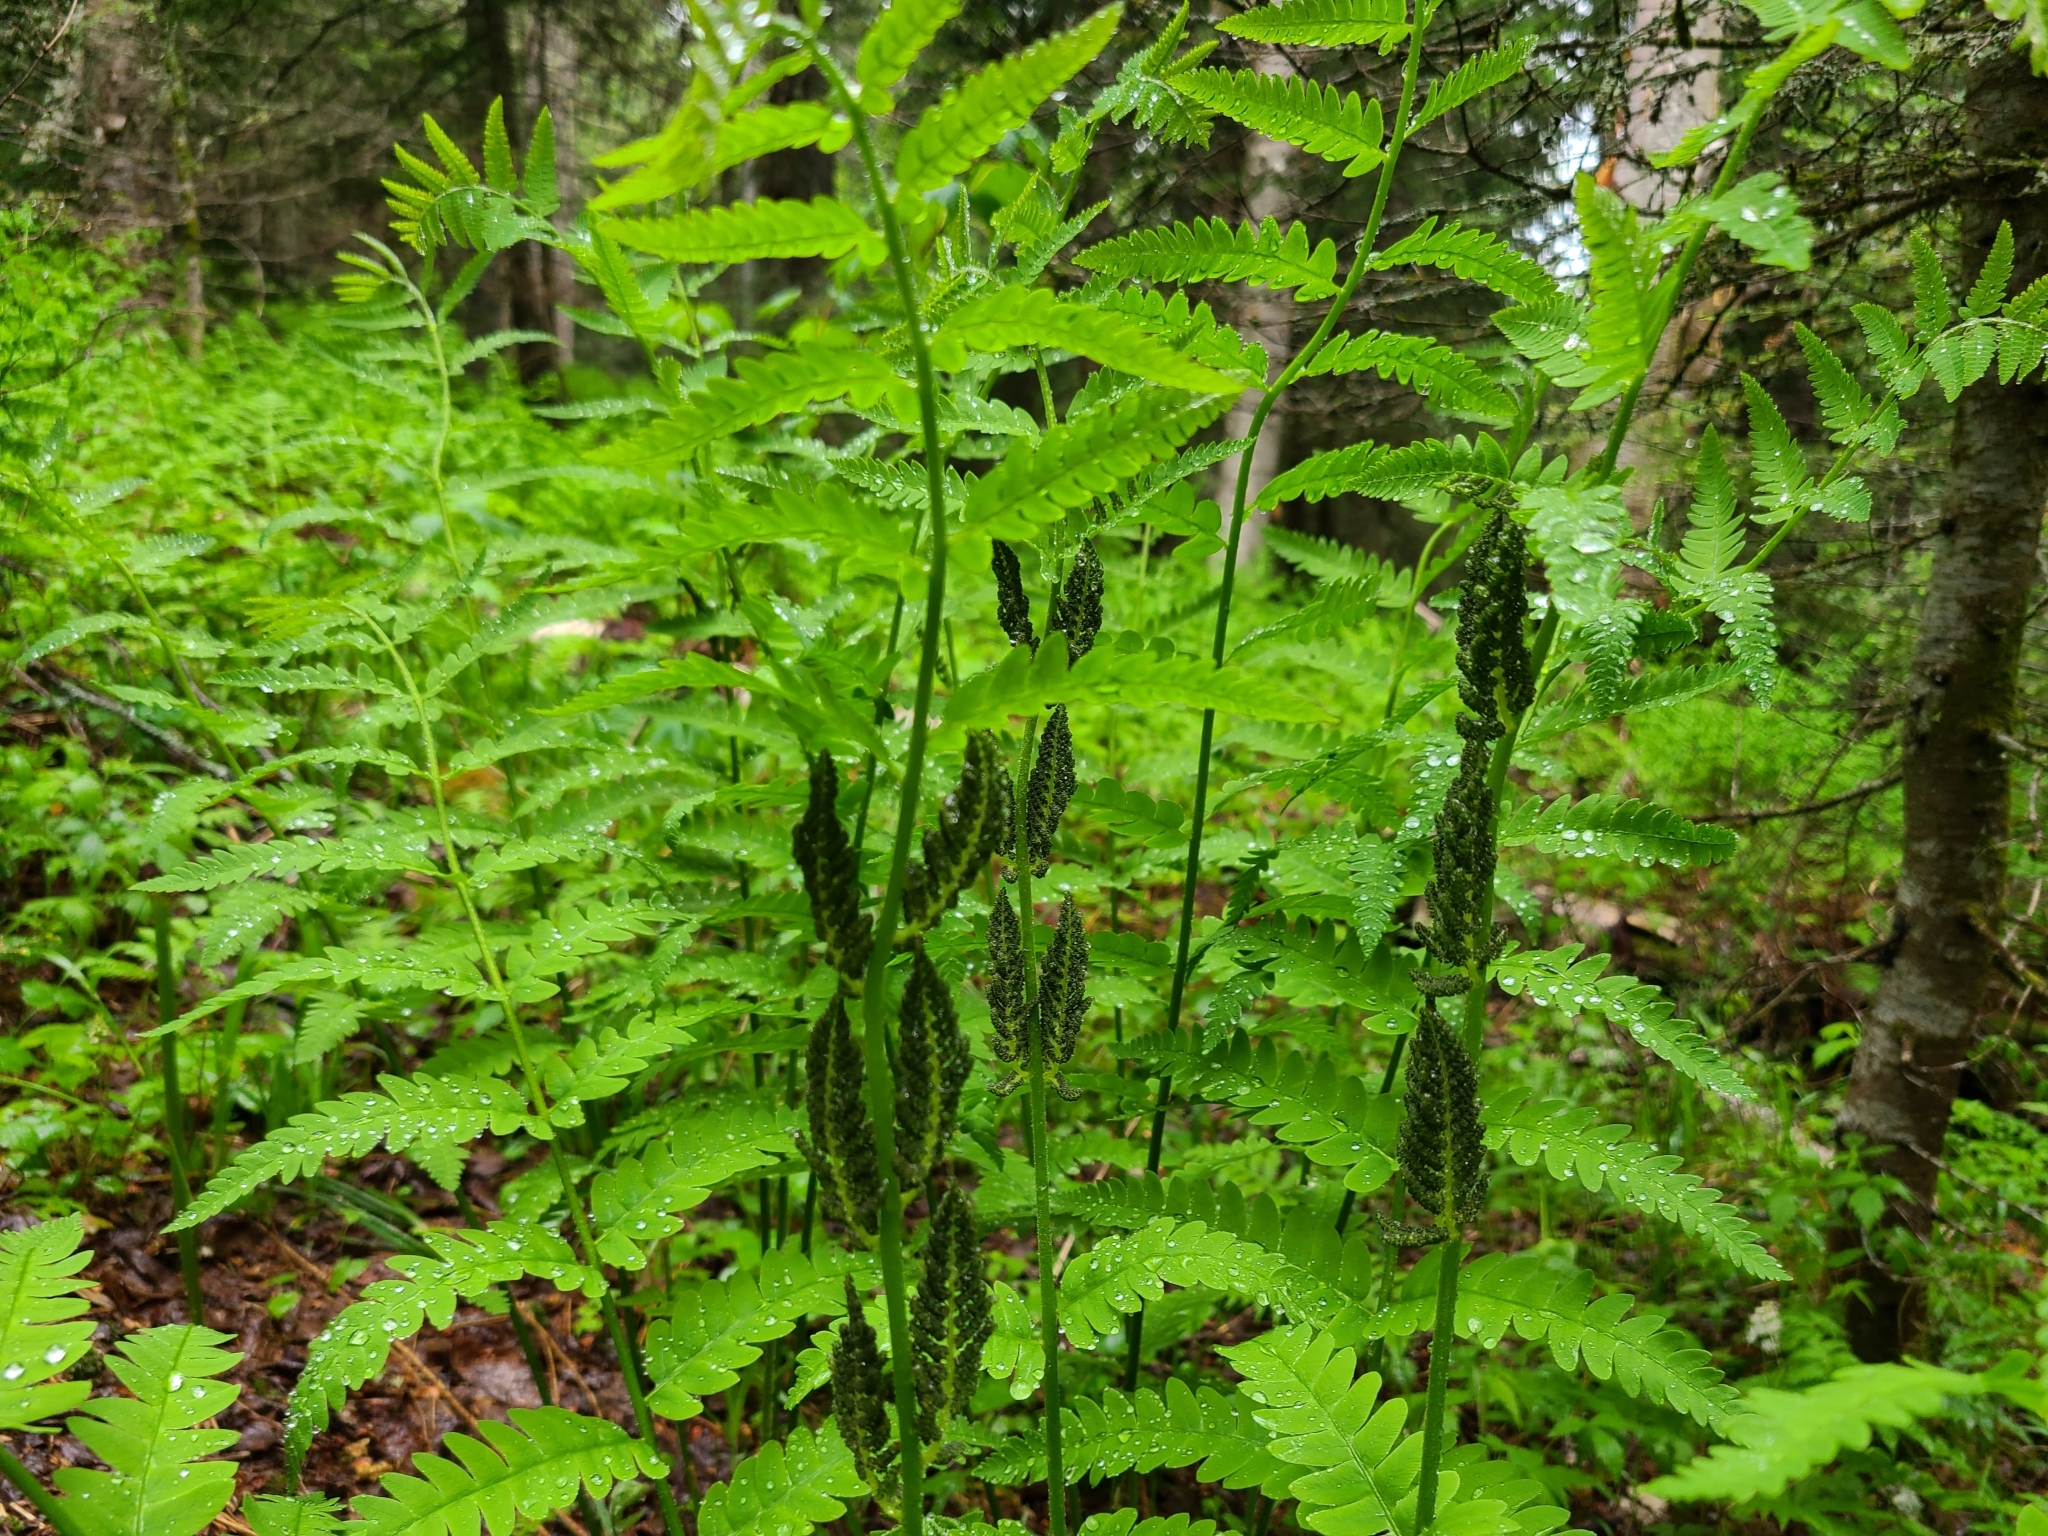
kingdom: Plantae
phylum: Tracheophyta
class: Polypodiopsida
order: Osmundales
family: Osmundaceae
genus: Claytosmunda
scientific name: Claytosmunda claytoniana
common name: Clayton's fern
